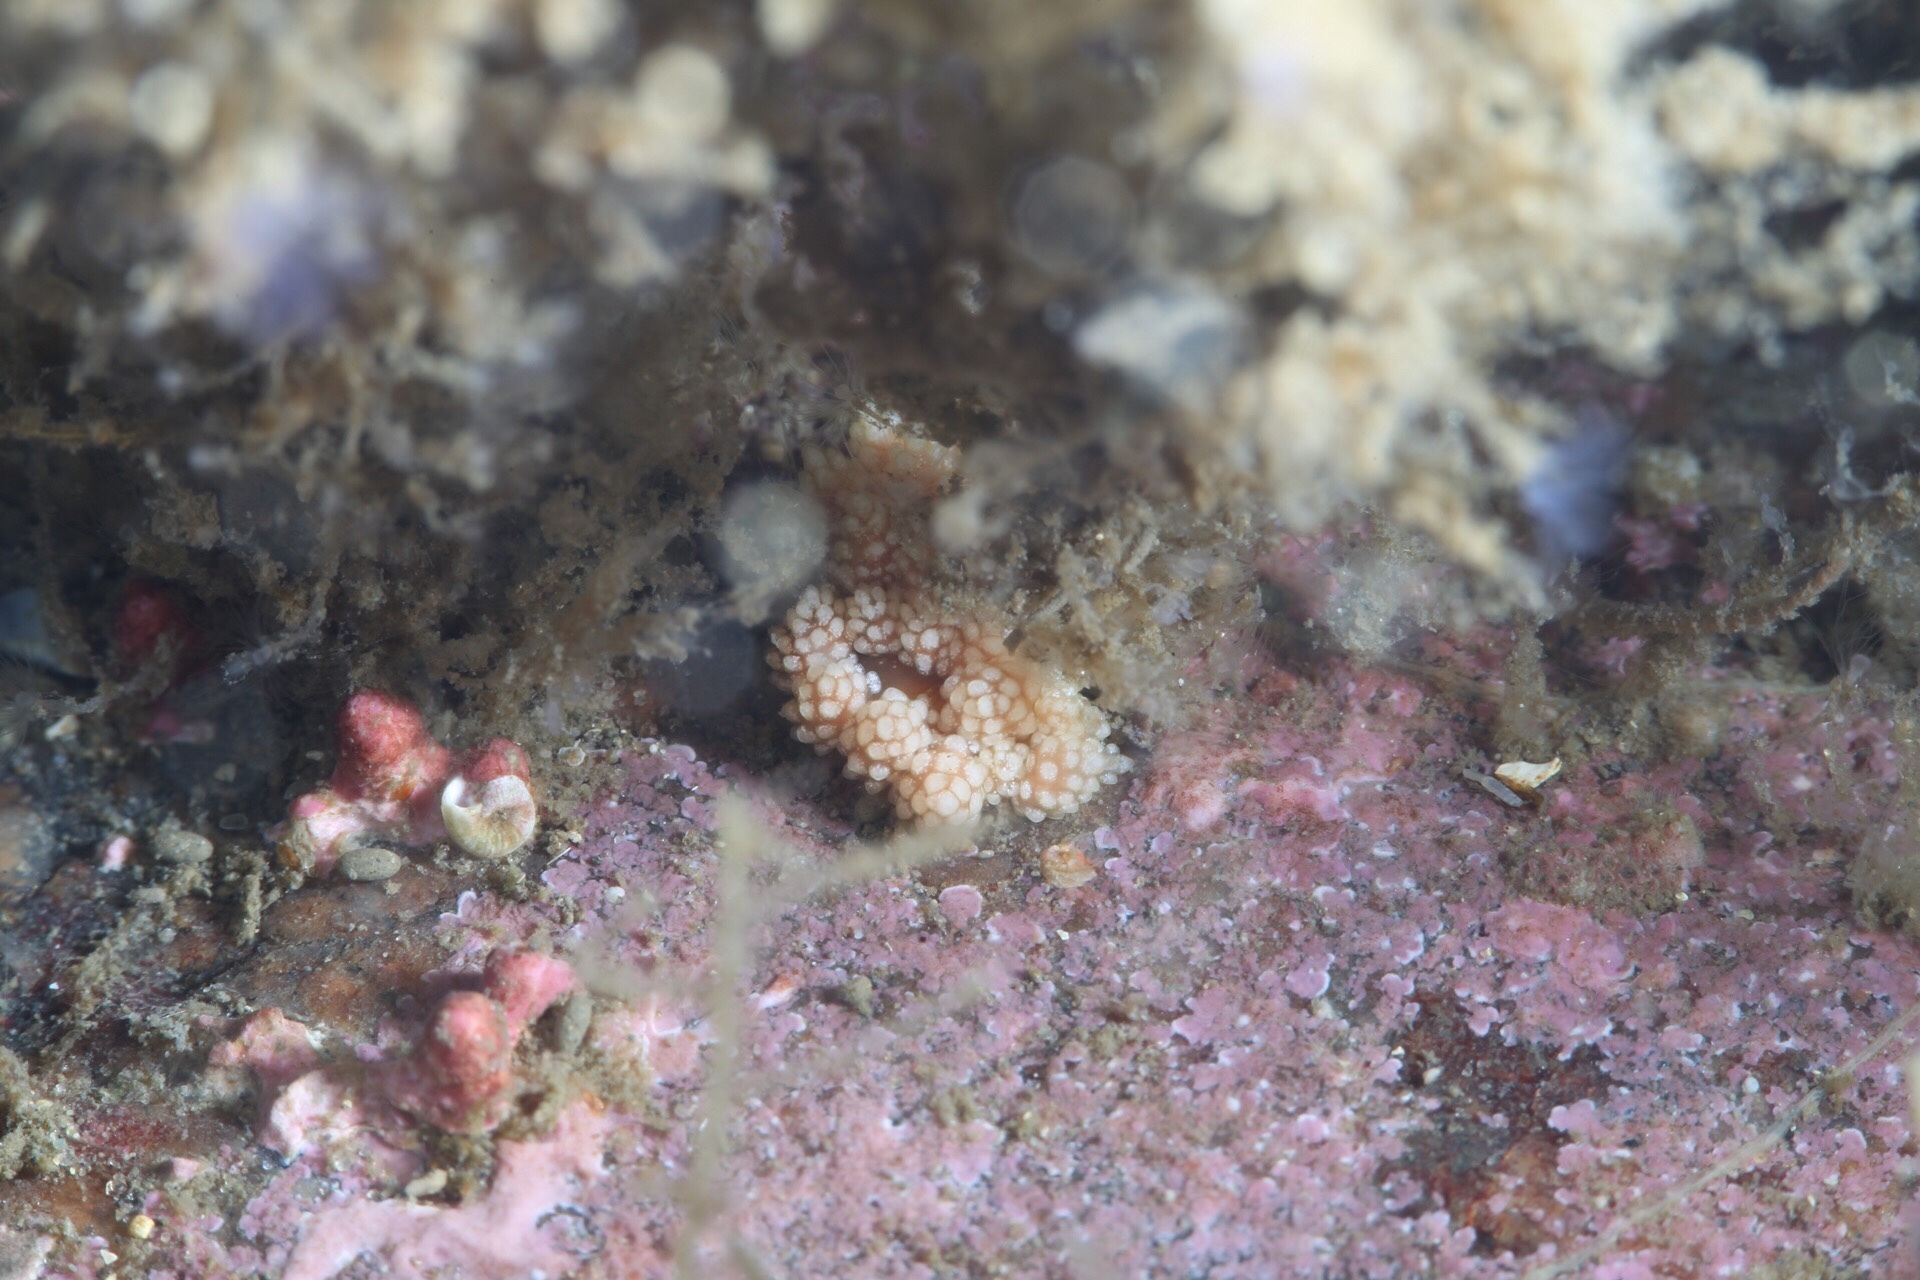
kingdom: Animalia
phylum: Mollusca
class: Gastropoda
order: Nudibranchia
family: Dotidae
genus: Doto
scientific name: Doto fragilis
